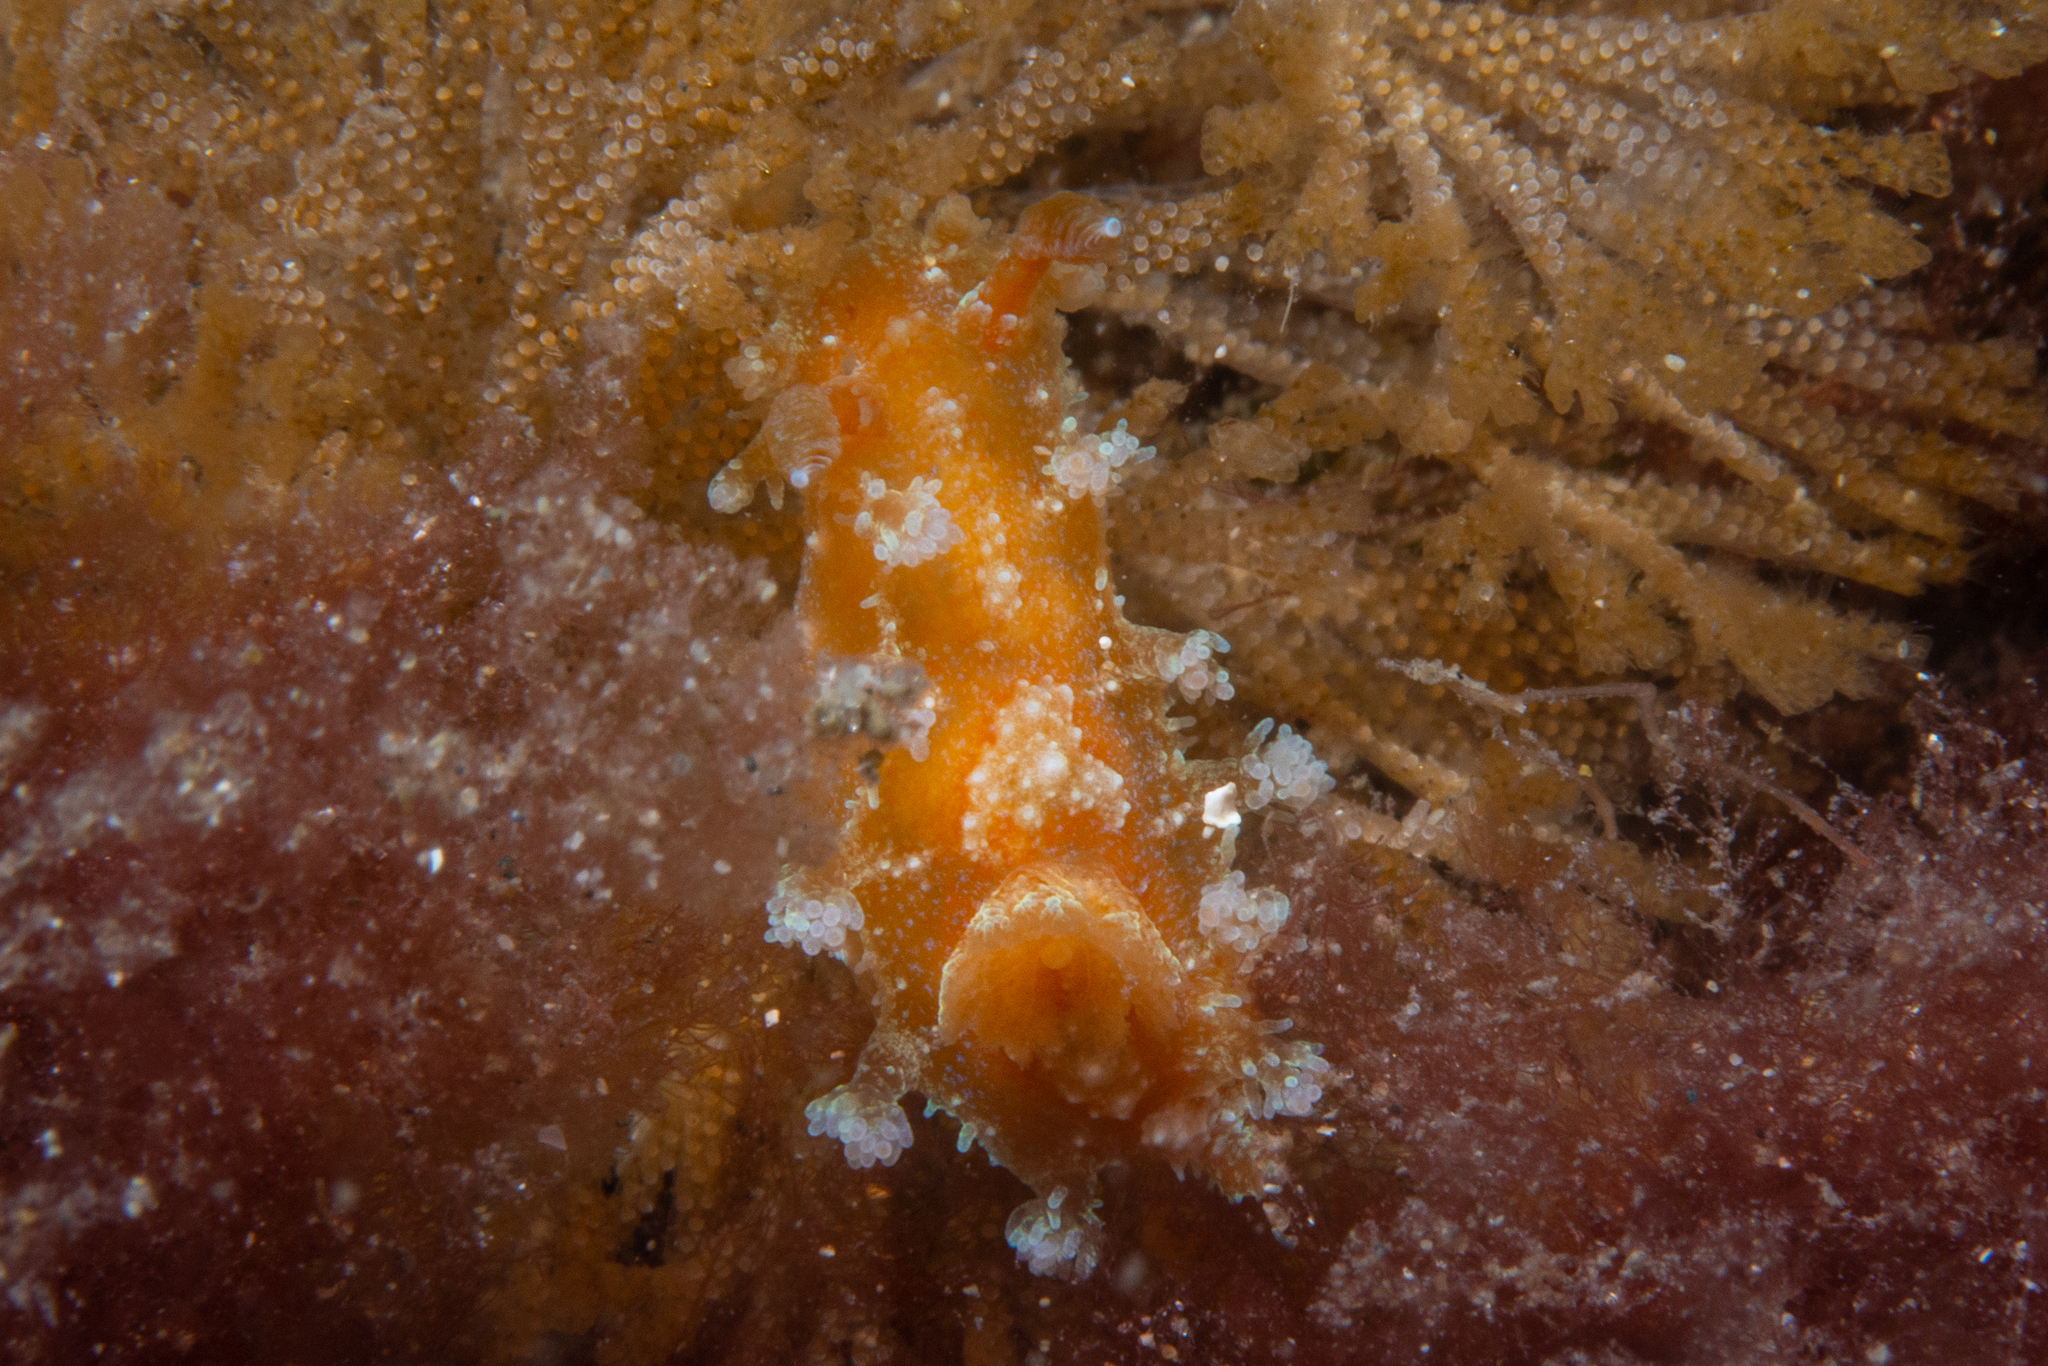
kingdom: Animalia
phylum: Mollusca
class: Gastropoda
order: Nudibranchia
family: Polyceridae
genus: Kaloplocamus
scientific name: Kaloplocamus ramosus
